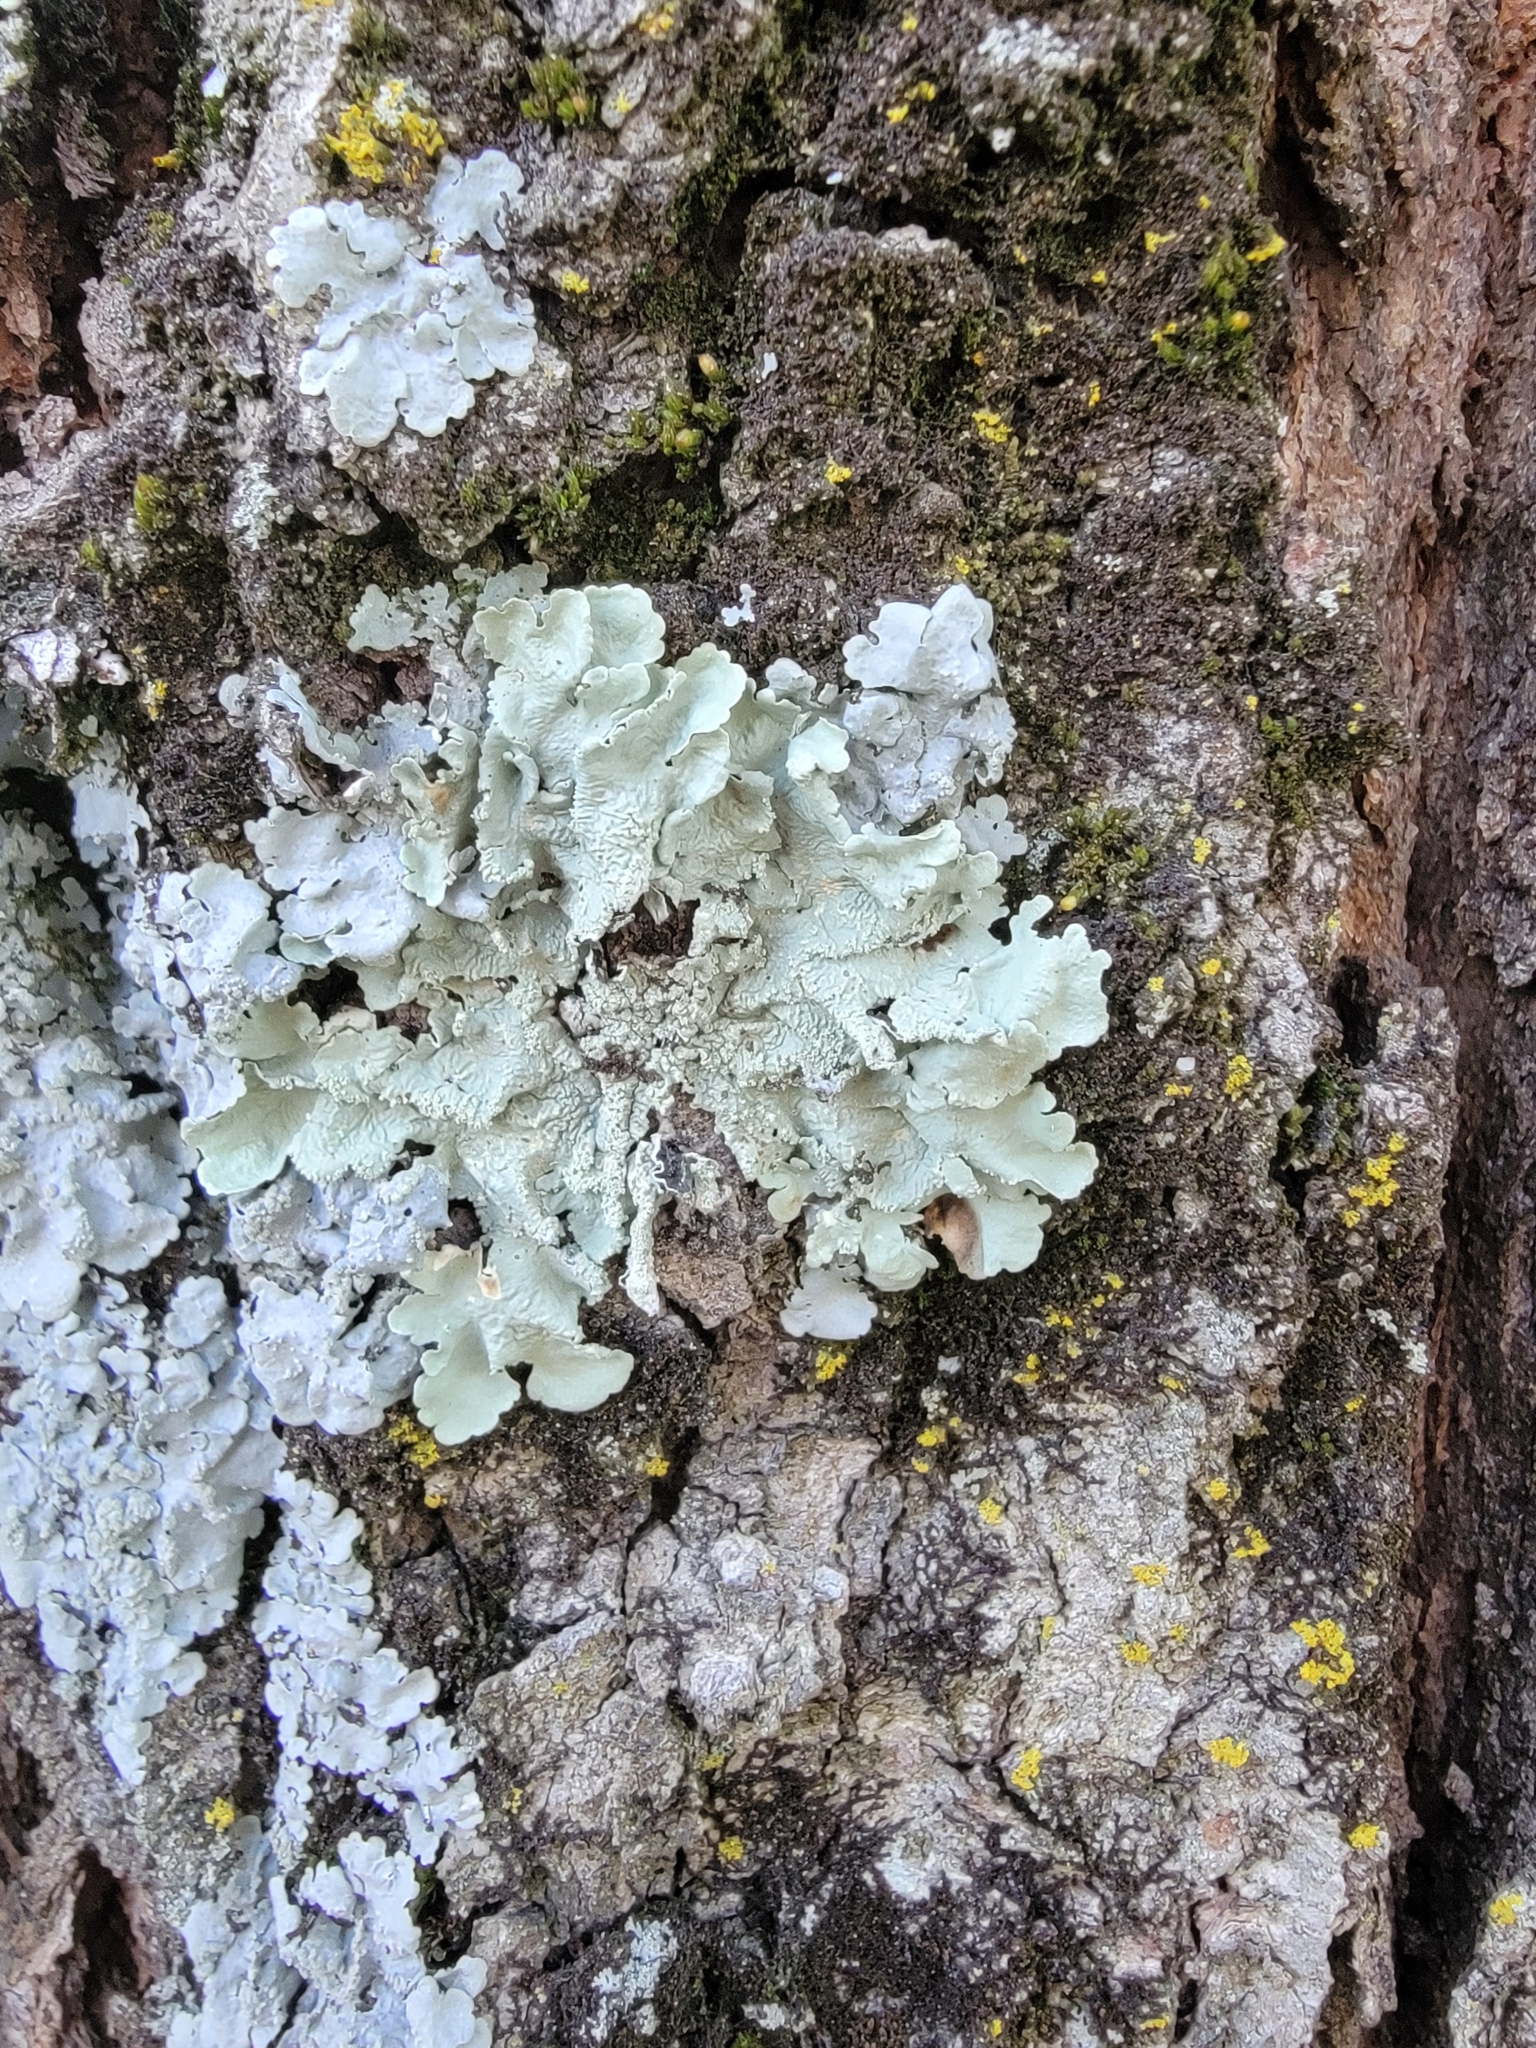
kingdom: Fungi
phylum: Ascomycota
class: Lecanoromycetes
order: Lecanorales
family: Parmeliaceae
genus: Flavoparmelia
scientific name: Flavoparmelia caperata
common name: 40-mile per hour lichen
